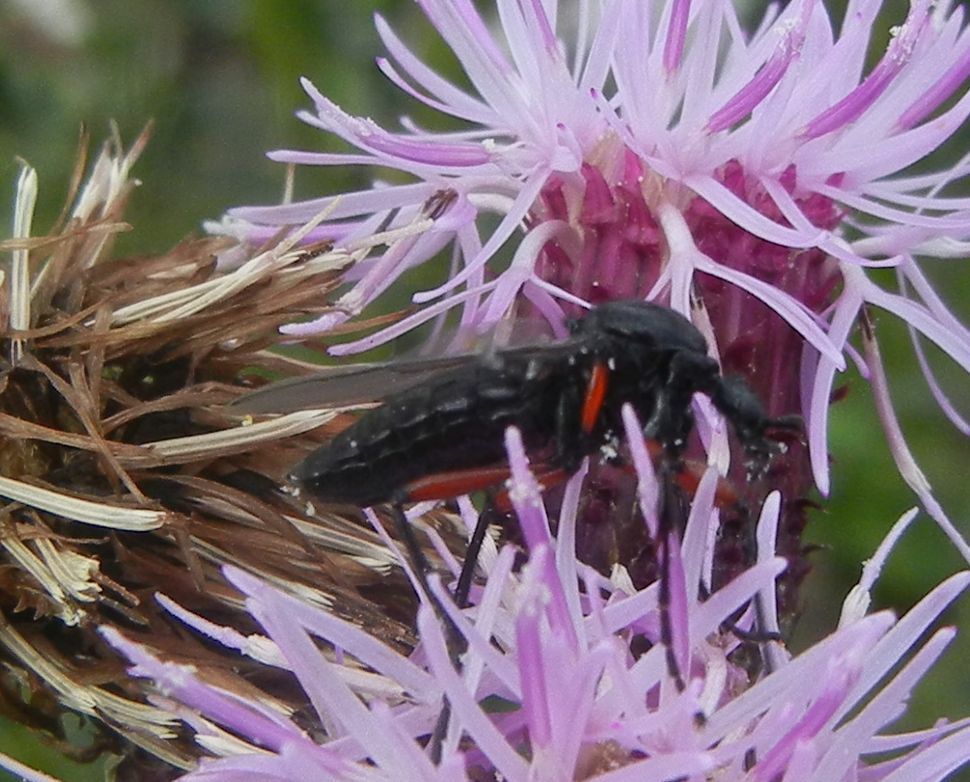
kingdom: Animalia
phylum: Arthropoda
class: Insecta
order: Diptera
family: Bibionidae
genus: Bibio
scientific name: Bibio pomonae
